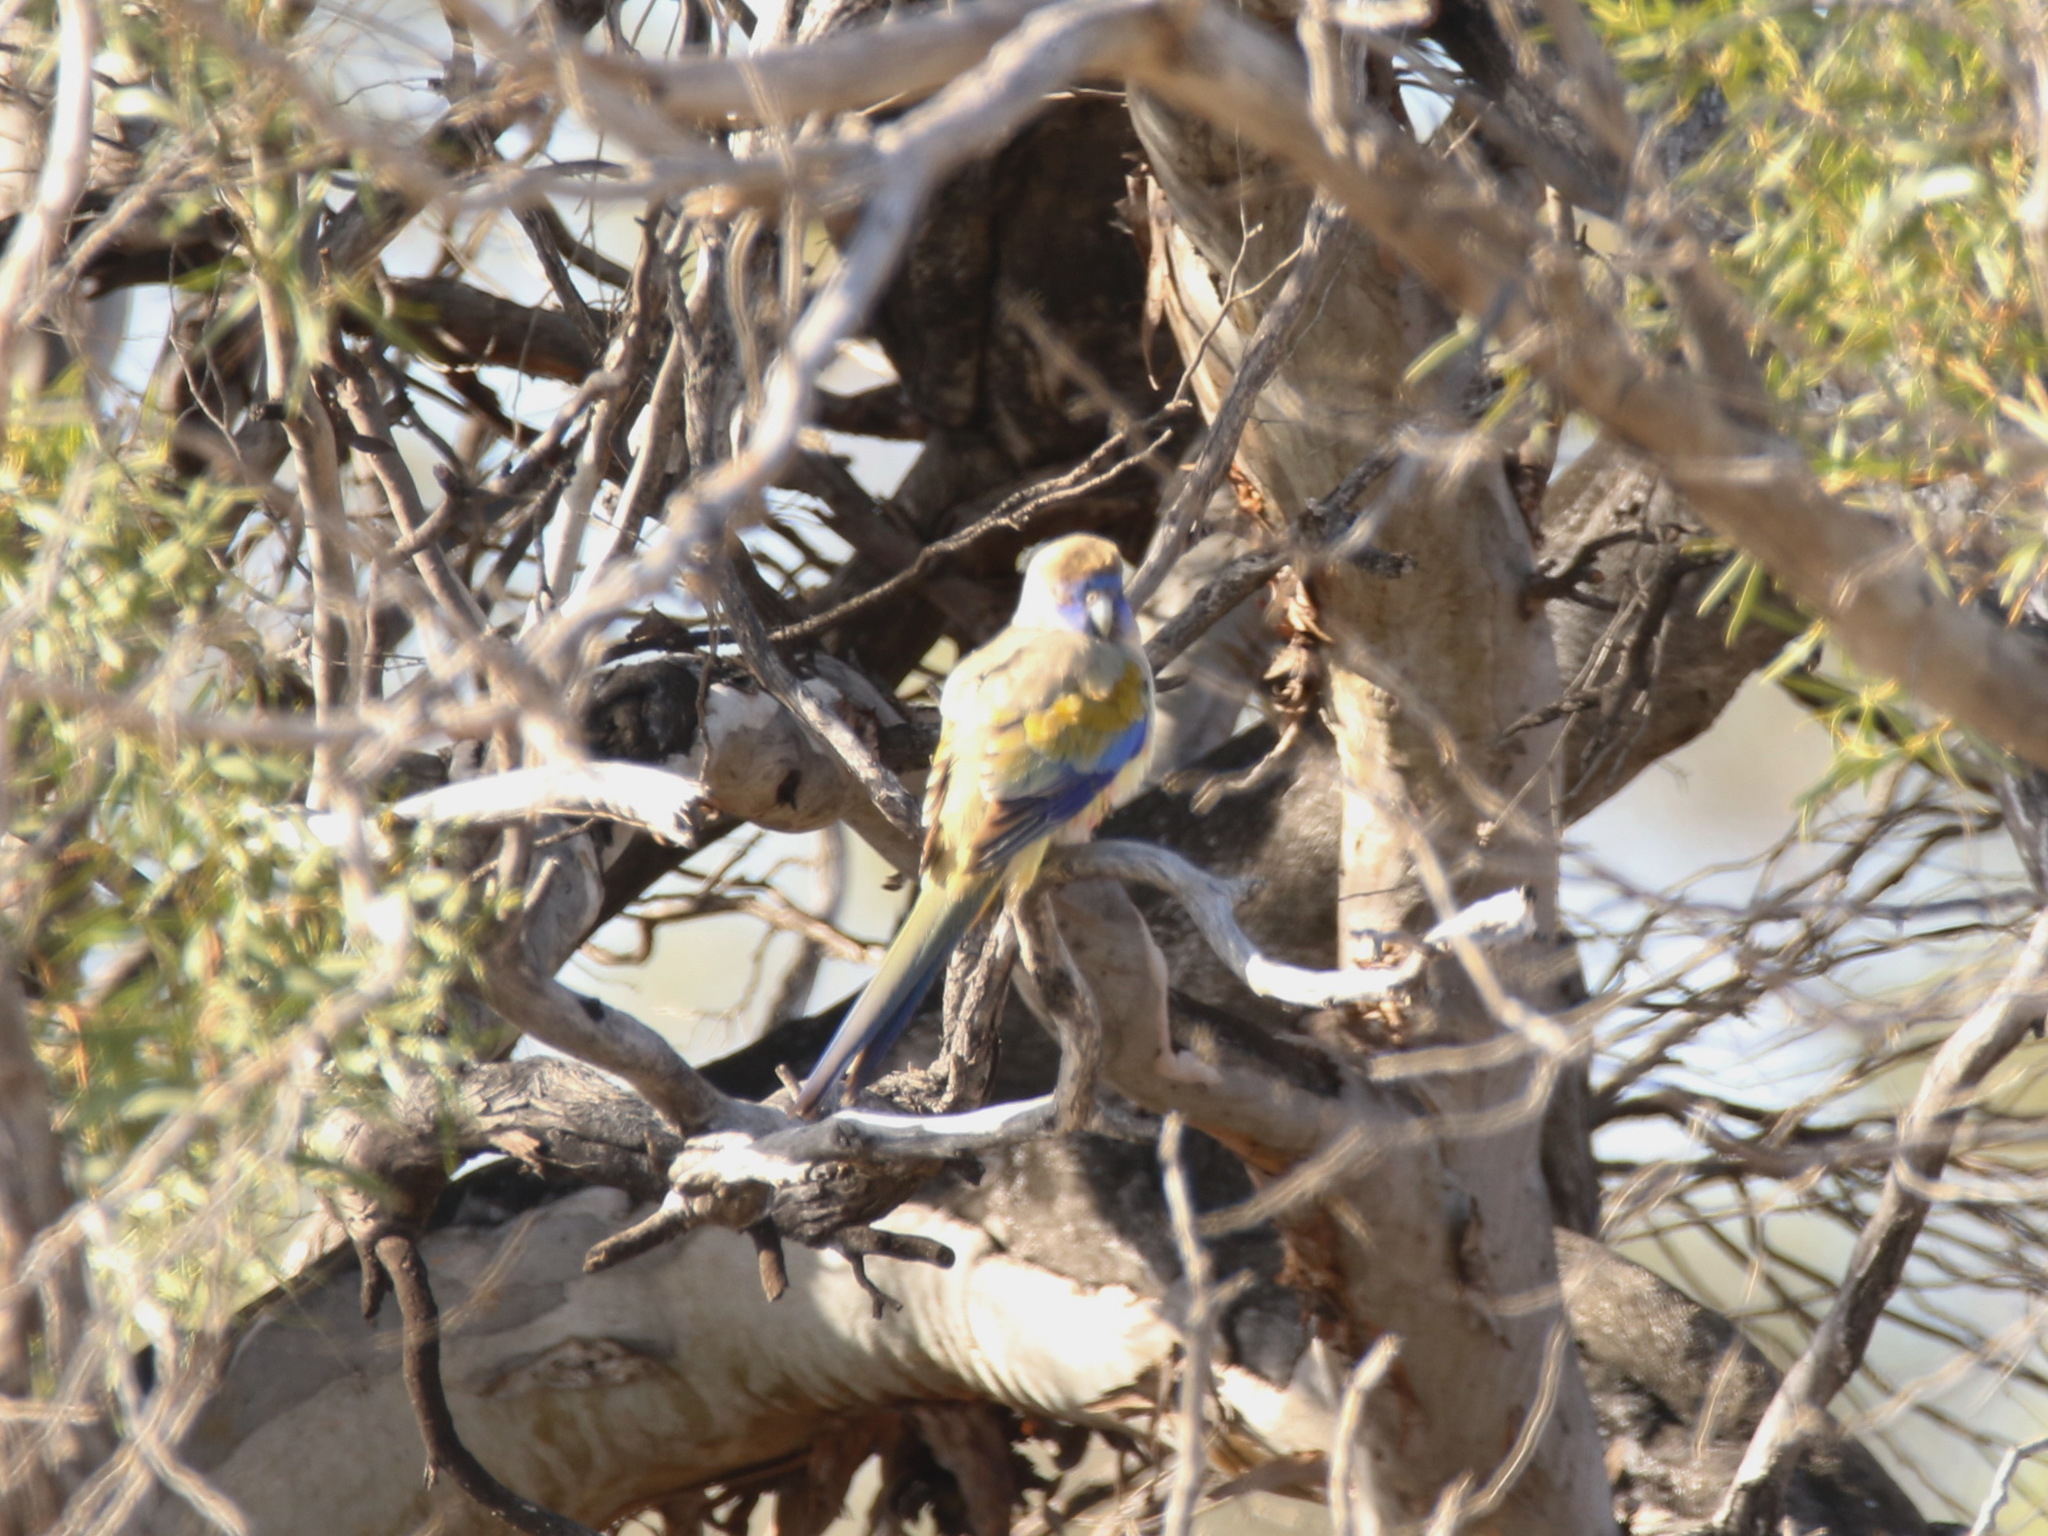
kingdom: Animalia
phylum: Chordata
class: Aves
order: Psittaciformes
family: Psittacidae
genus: Northiella
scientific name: Northiella haematogaster
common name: Bluebonnet
